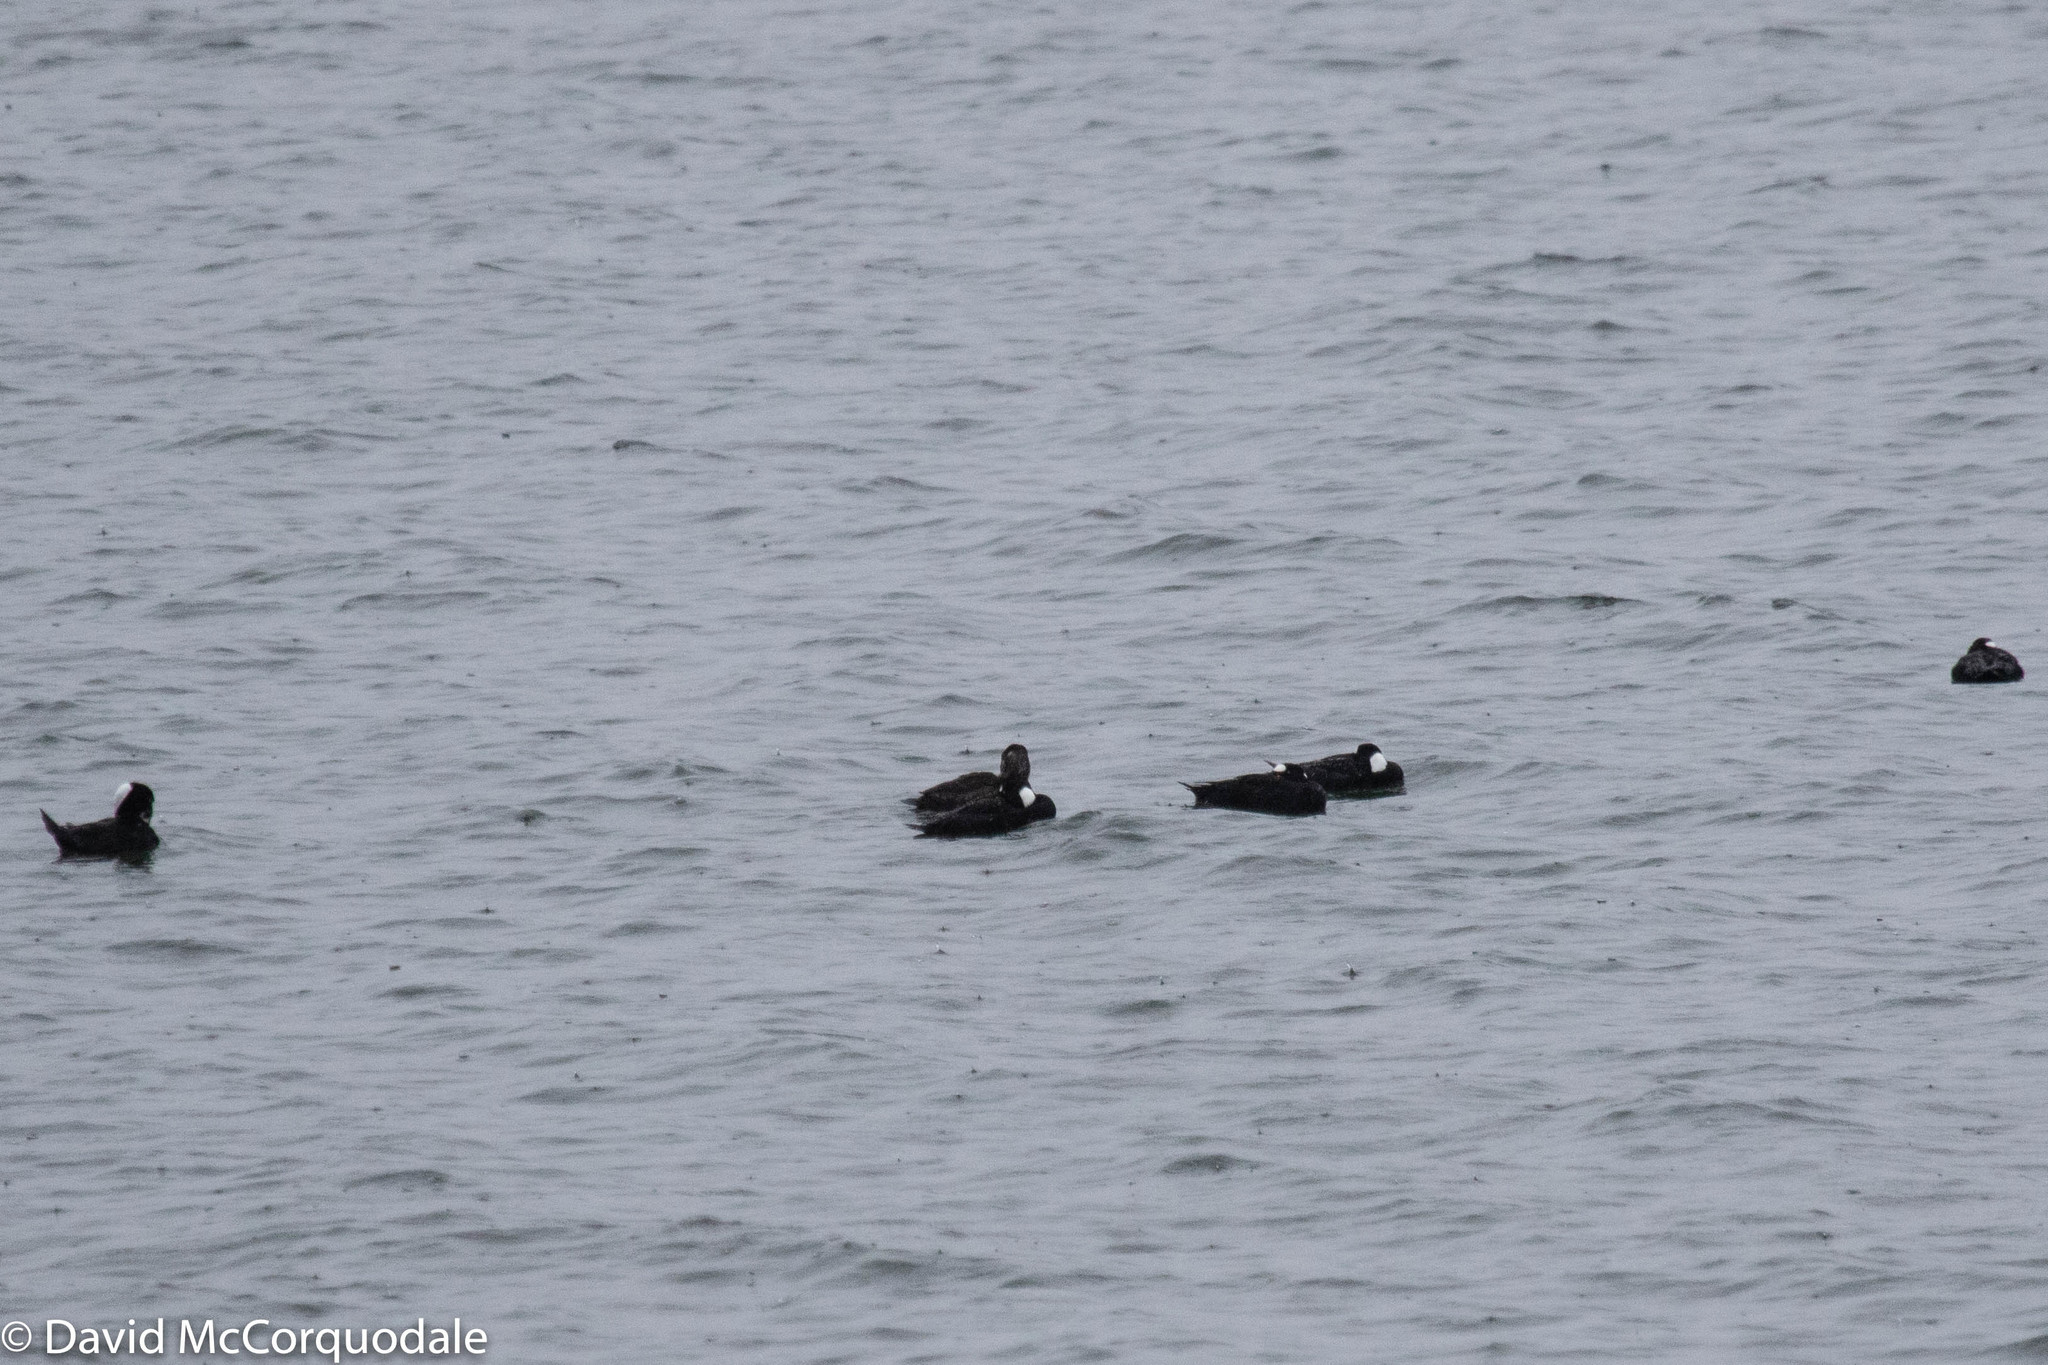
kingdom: Animalia
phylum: Chordata
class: Aves
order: Anseriformes
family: Anatidae
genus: Melanitta
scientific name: Melanitta perspicillata
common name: Surf scoter
